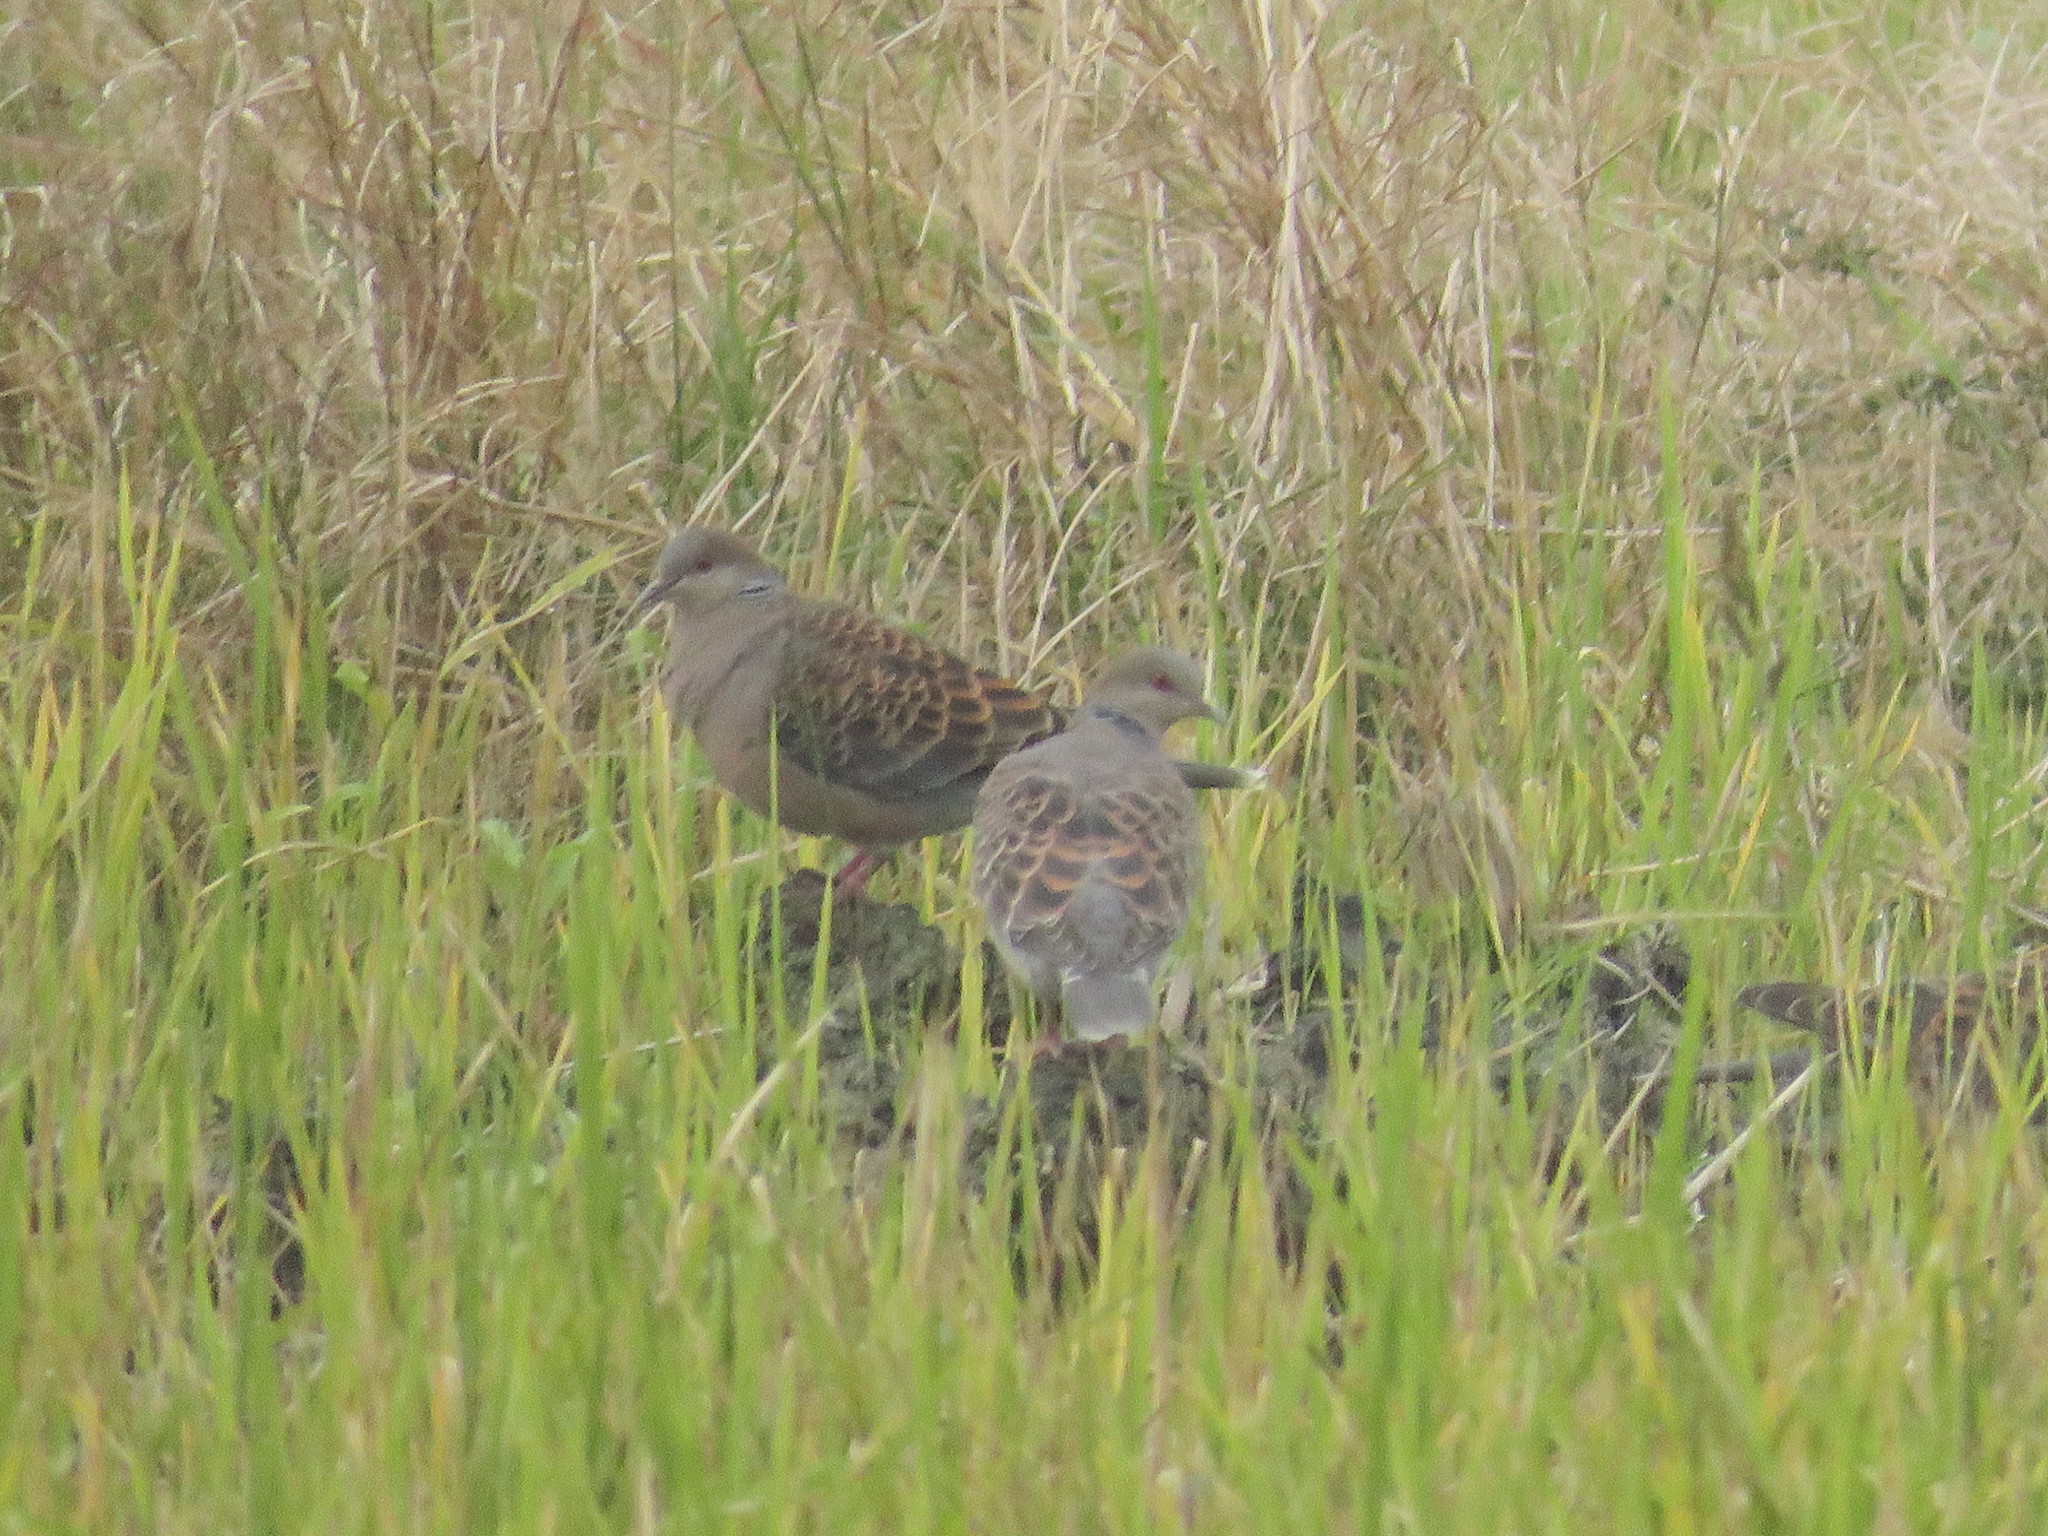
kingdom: Animalia
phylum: Chordata
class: Aves
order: Columbiformes
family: Columbidae
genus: Streptopelia
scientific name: Streptopelia orientalis
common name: Oriental turtle dove
